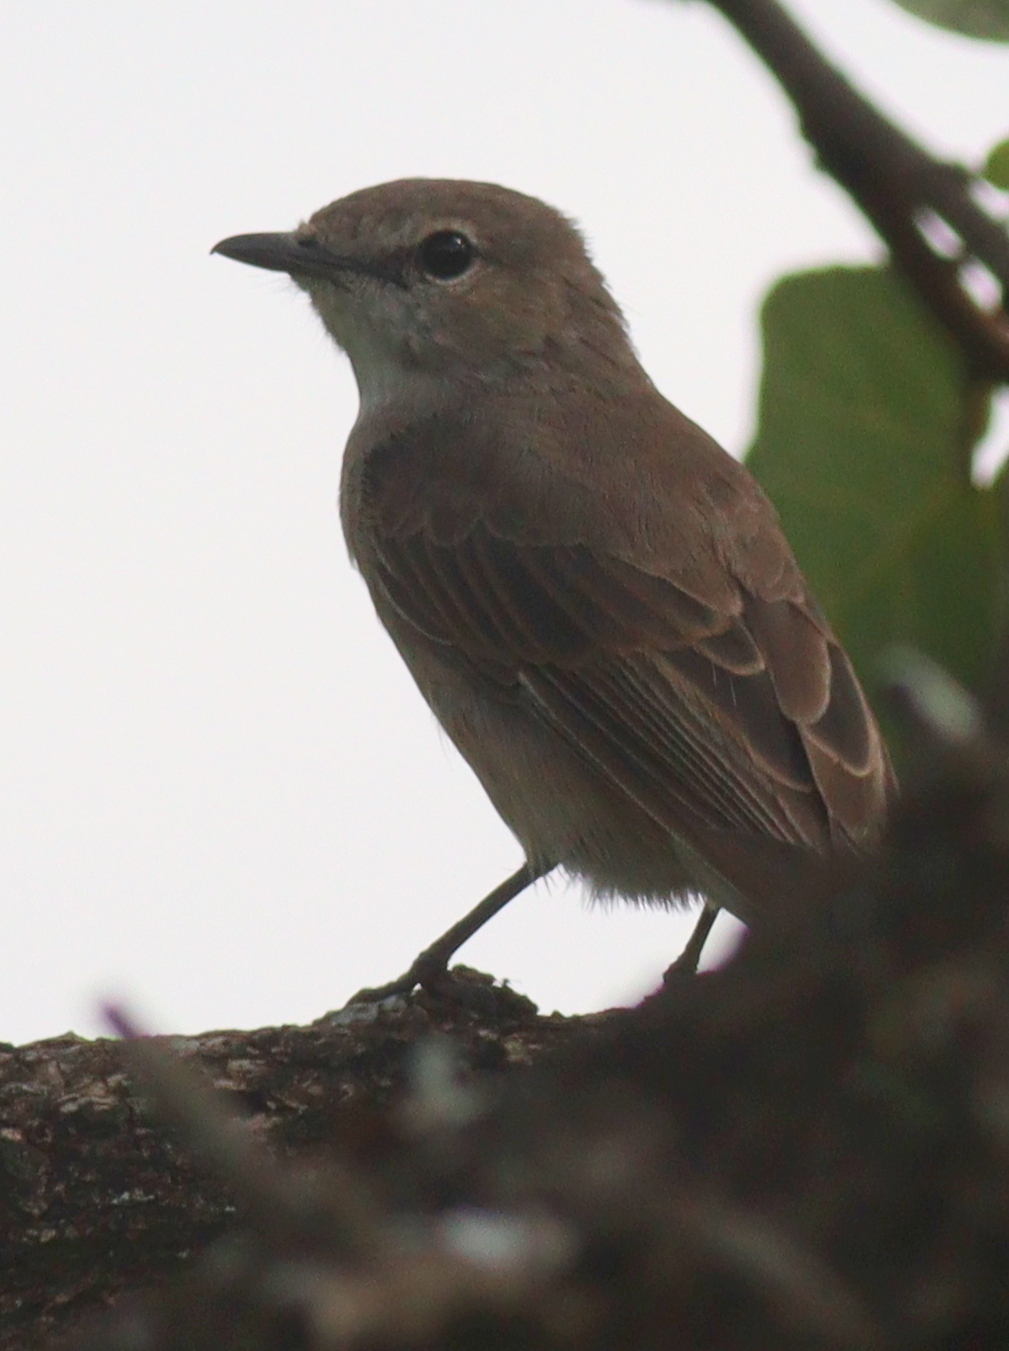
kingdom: Animalia
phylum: Chordata
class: Aves
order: Passeriformes
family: Muscicapidae
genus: Bradornis
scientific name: Bradornis pallidus
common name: Pale flycatcher
